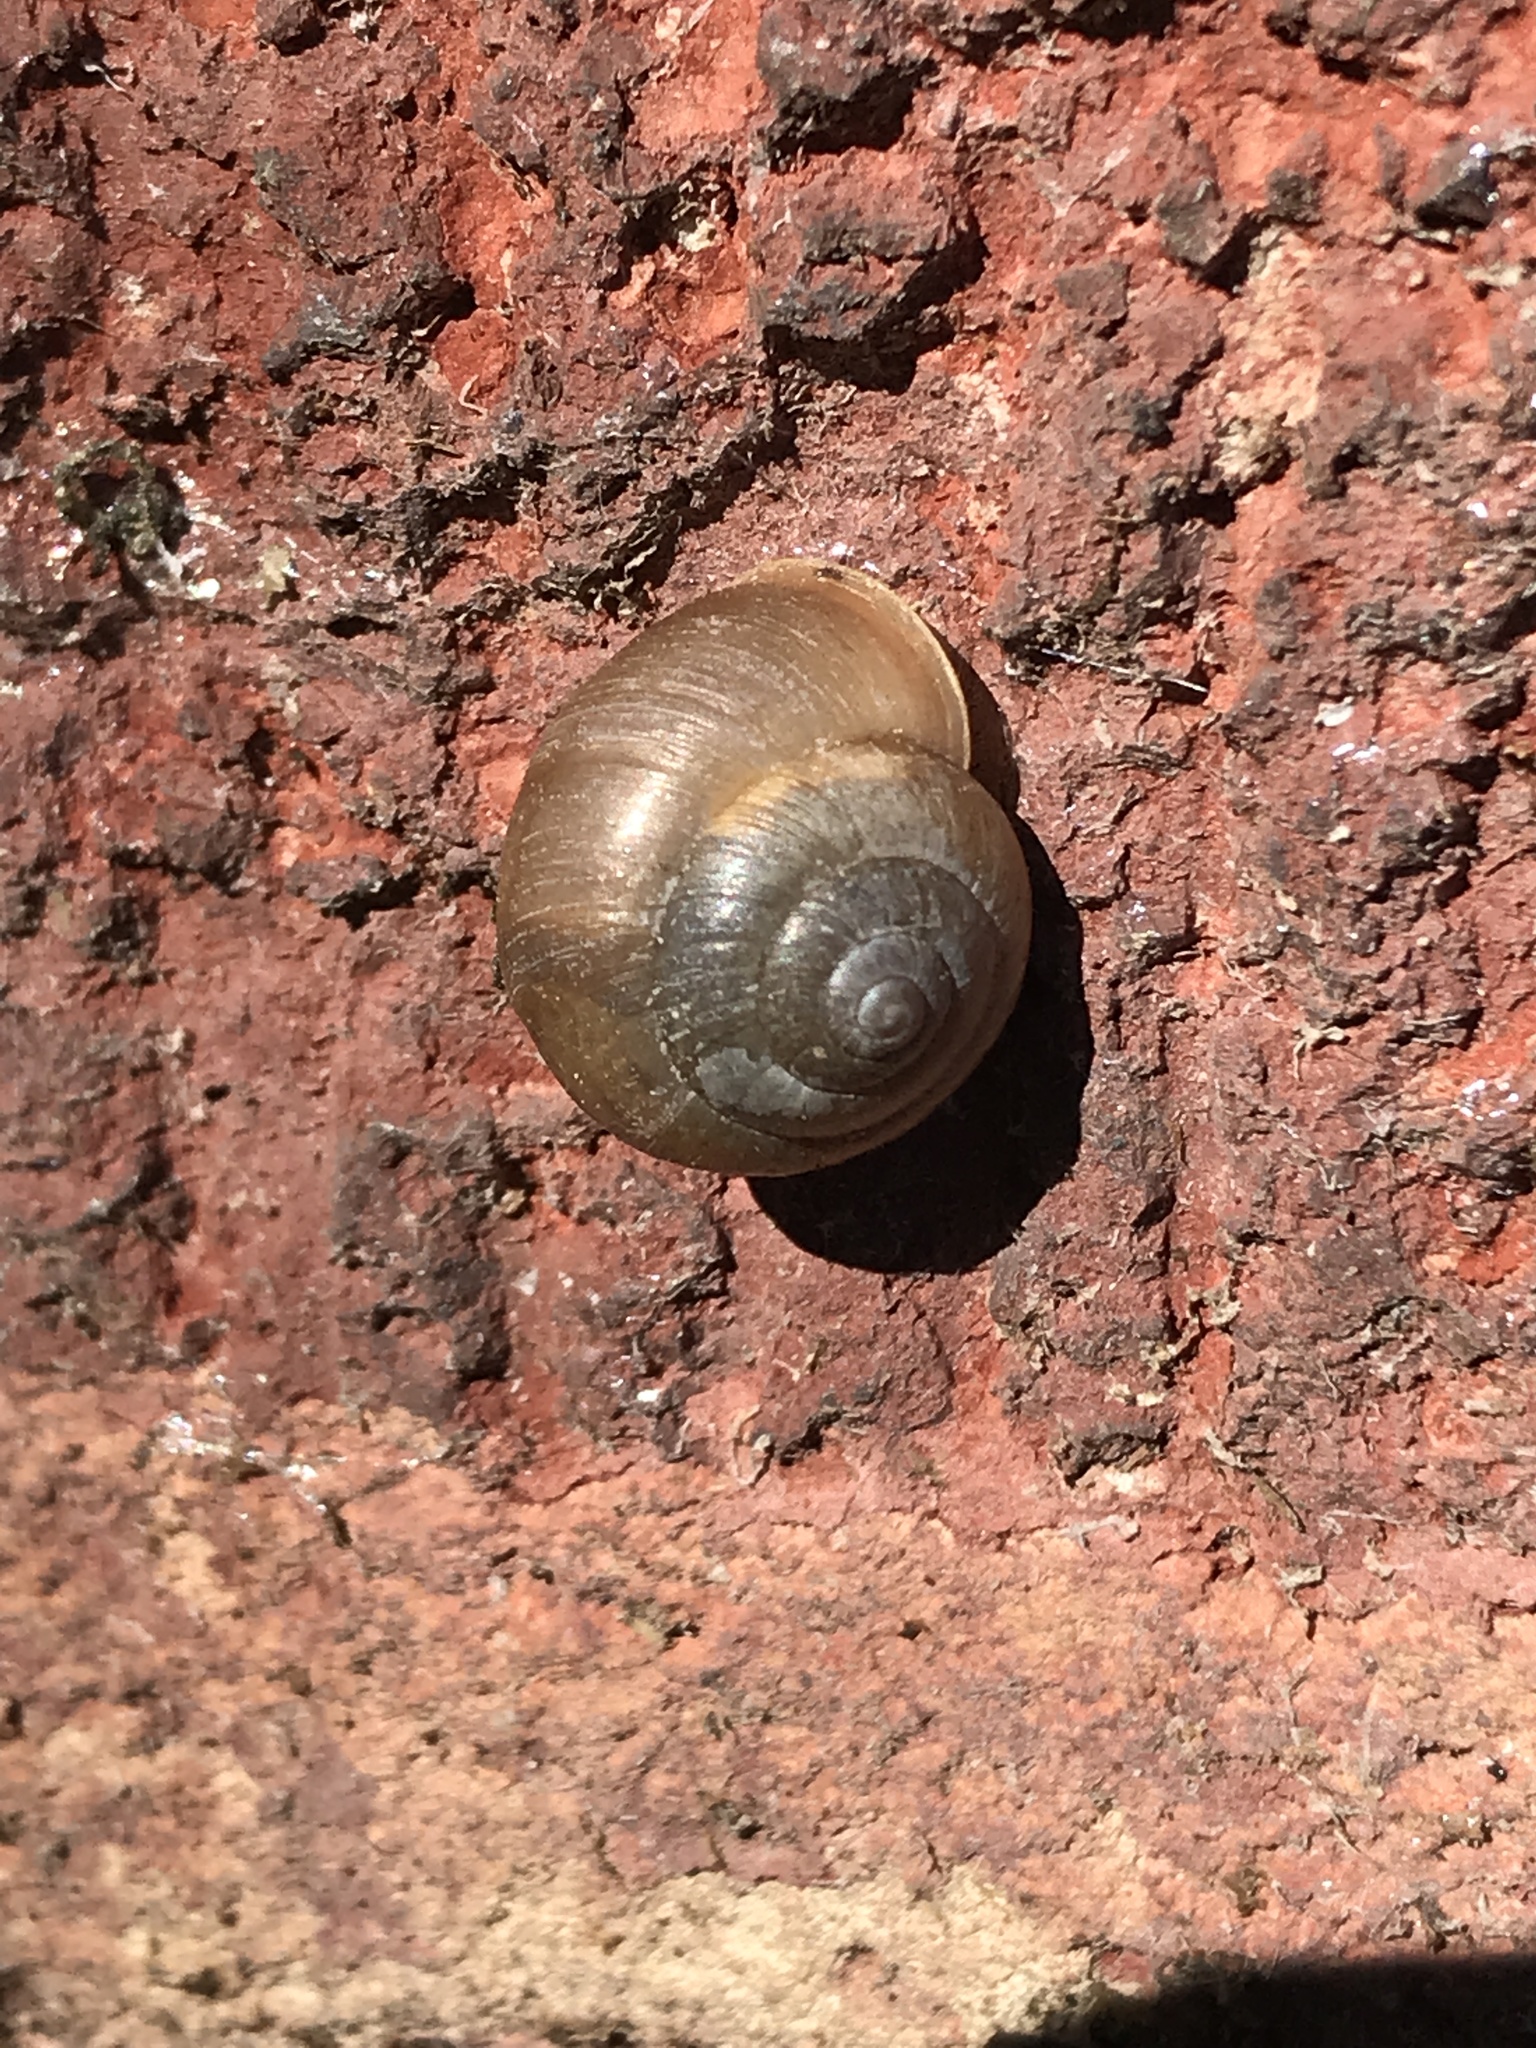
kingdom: Animalia
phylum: Mollusca
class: Gastropoda
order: Stylommatophora
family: Camaenidae
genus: Bradybaena
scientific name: Bradybaena similaris
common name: Asian trampsnail
